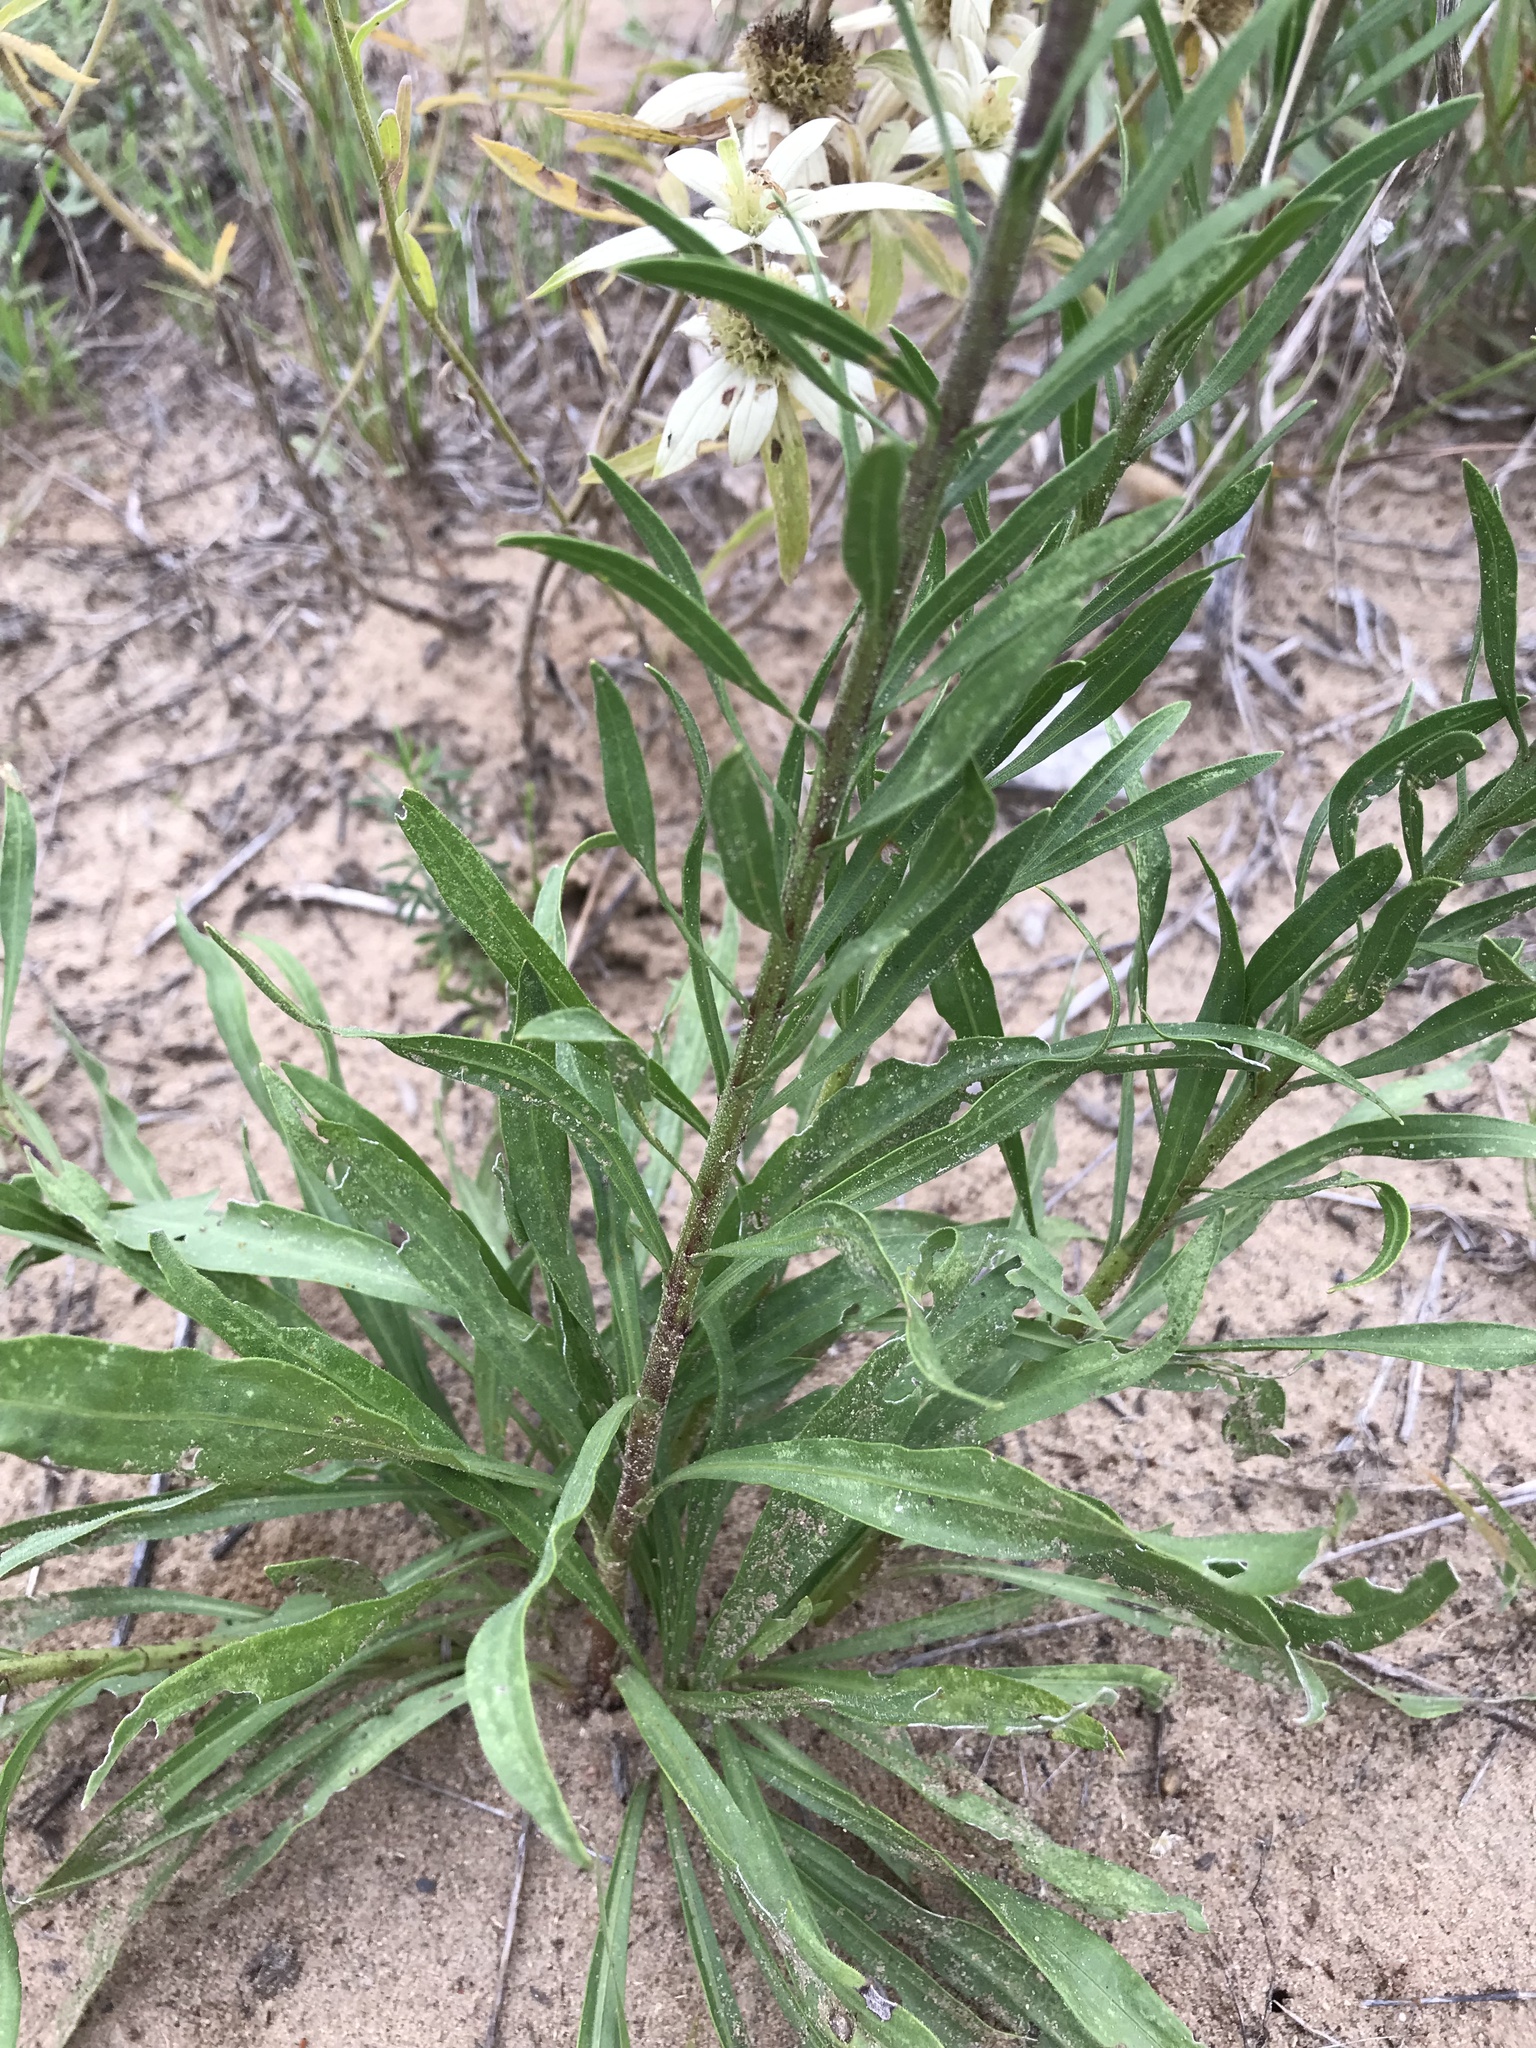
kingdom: Plantae
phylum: Tracheophyta
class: Magnoliopsida
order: Asterales
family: Asteraceae
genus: Liatris
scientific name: Liatris aspera
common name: Lacerate blazing-star
